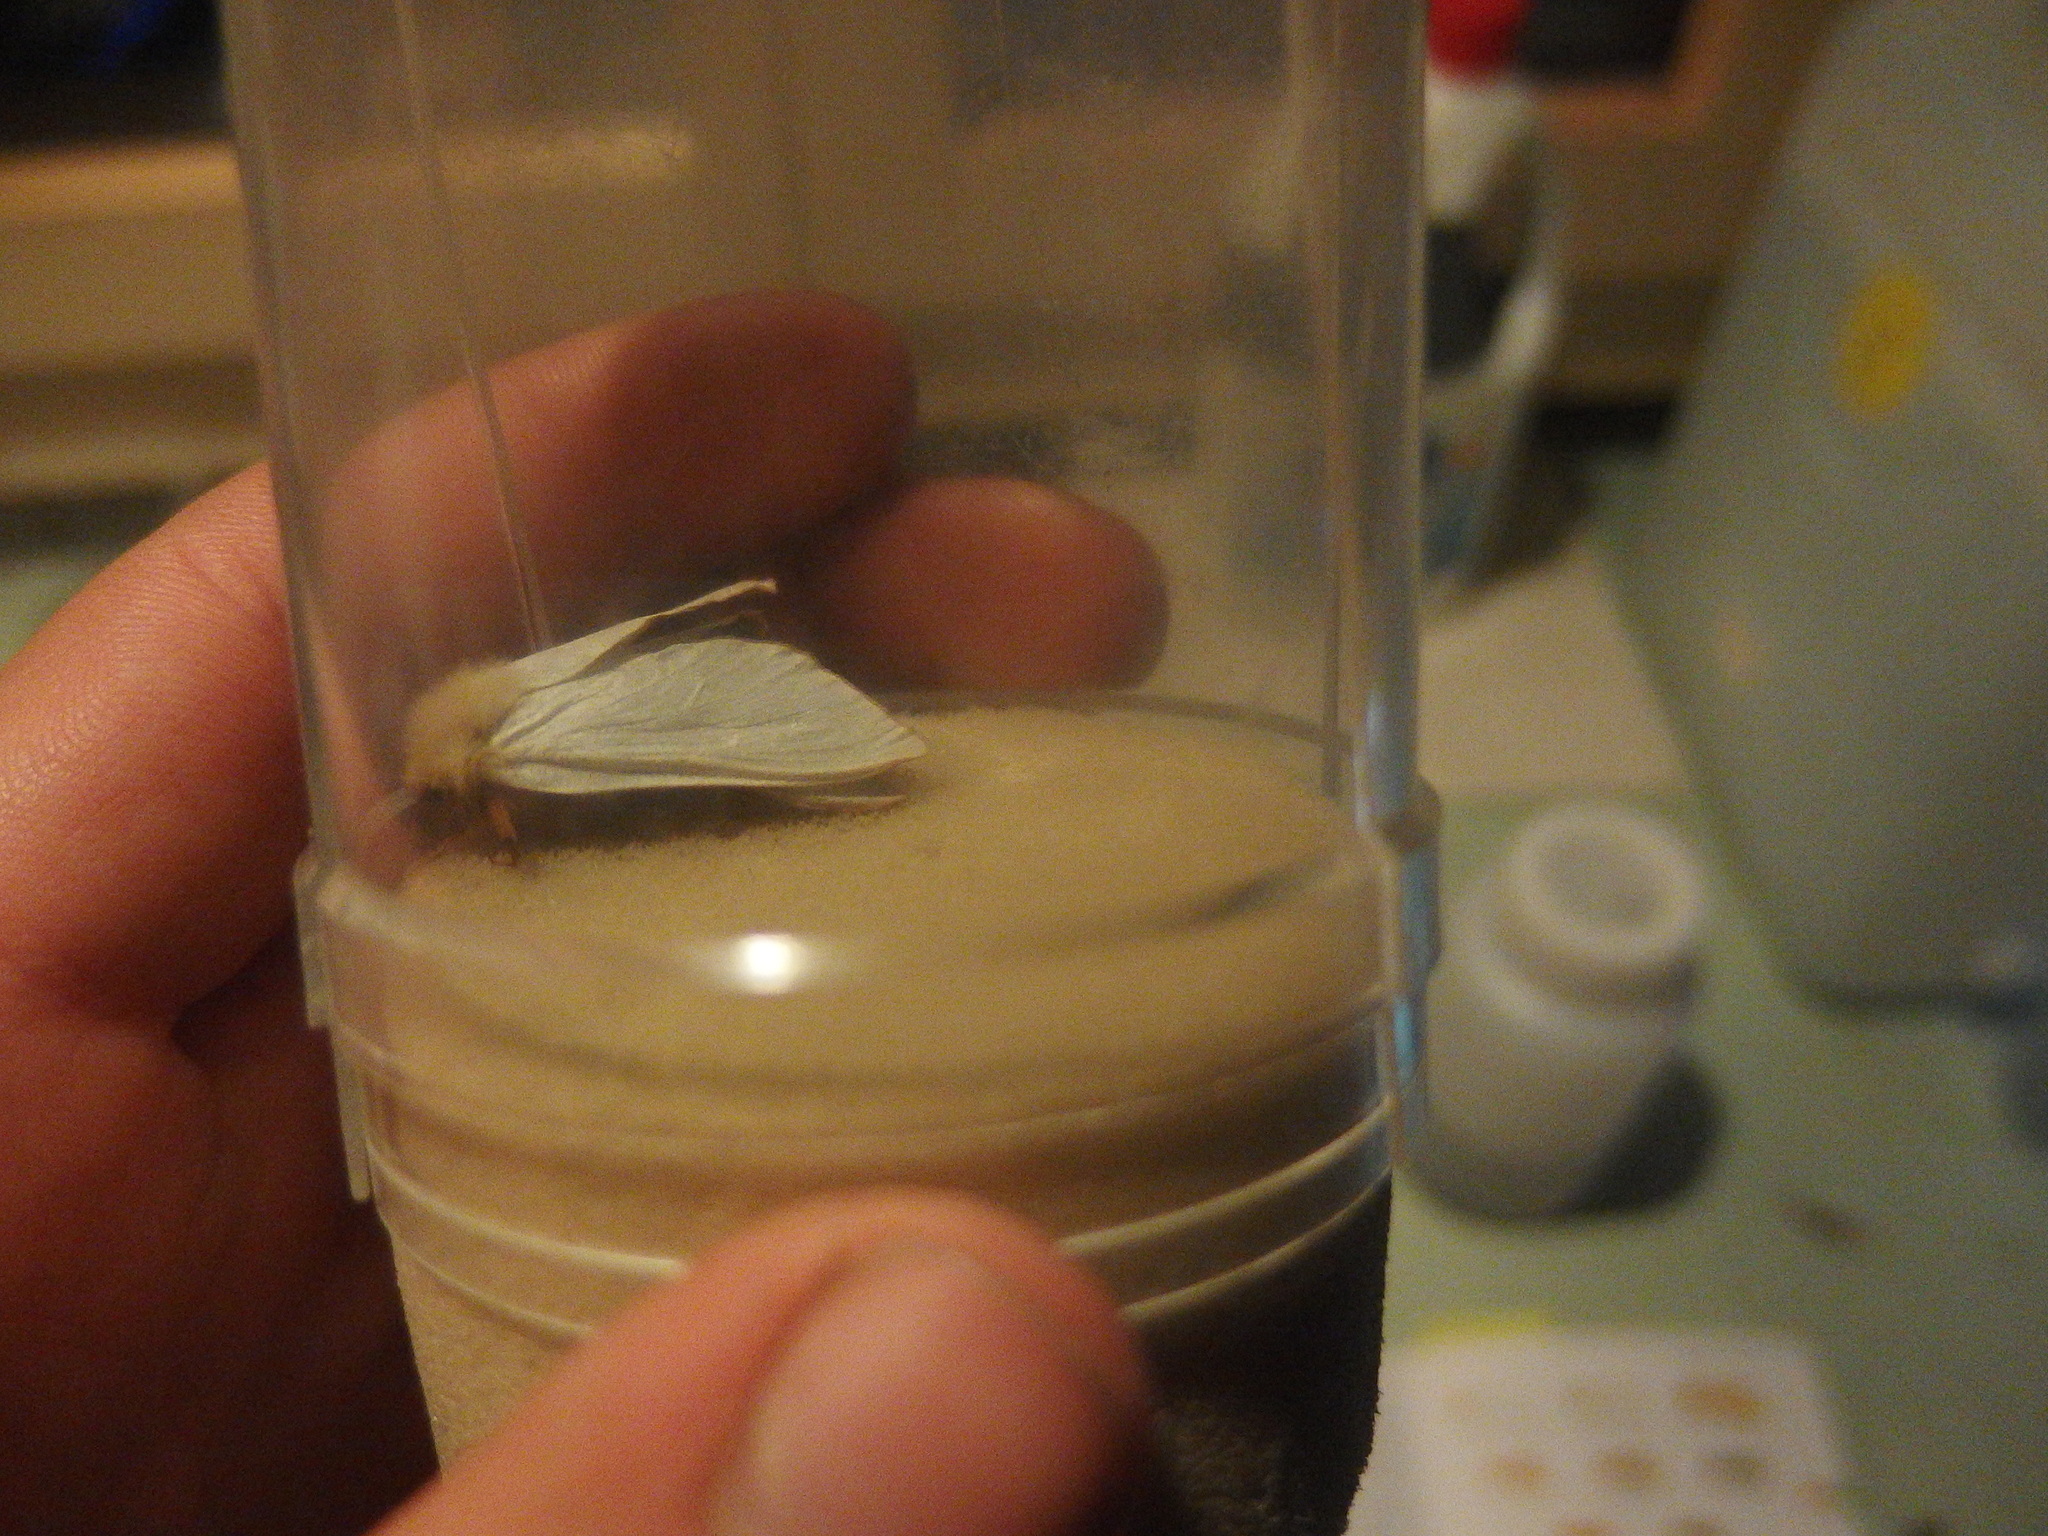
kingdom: Animalia
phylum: Arthropoda
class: Insecta
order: Lepidoptera
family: Hepialidae
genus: Hepialus
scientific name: Hepialus humuli
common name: Ghost moth
